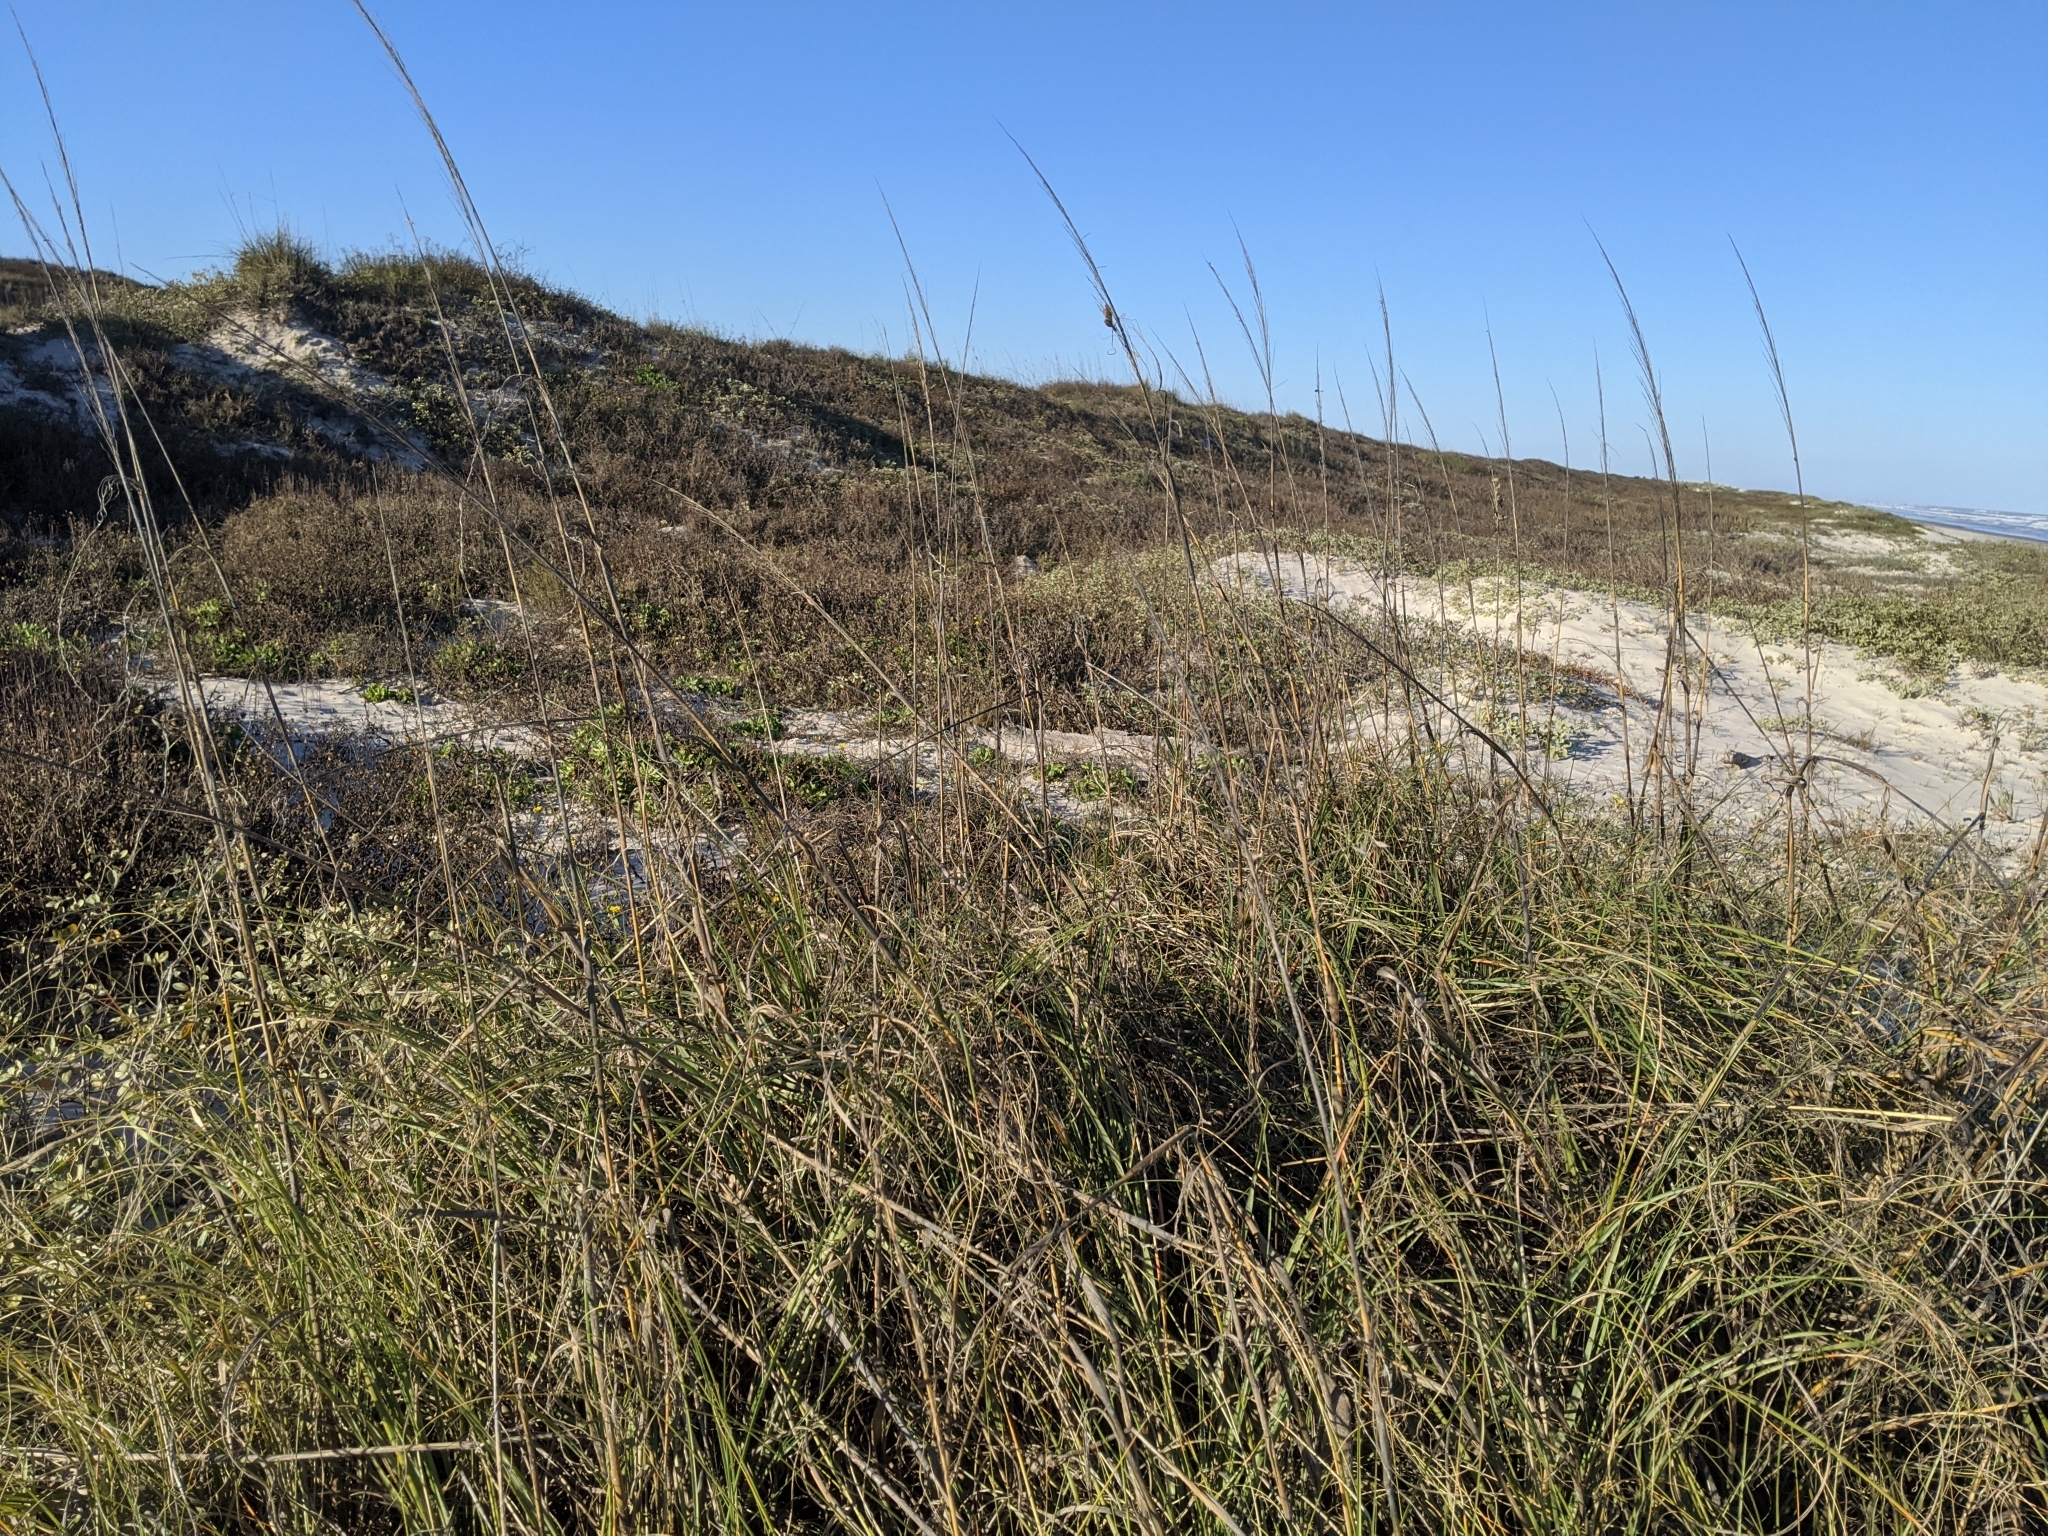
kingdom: Plantae
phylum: Tracheophyta
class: Liliopsida
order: Poales
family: Poaceae
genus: Uniola
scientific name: Uniola paniculata
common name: Seaside-oats
